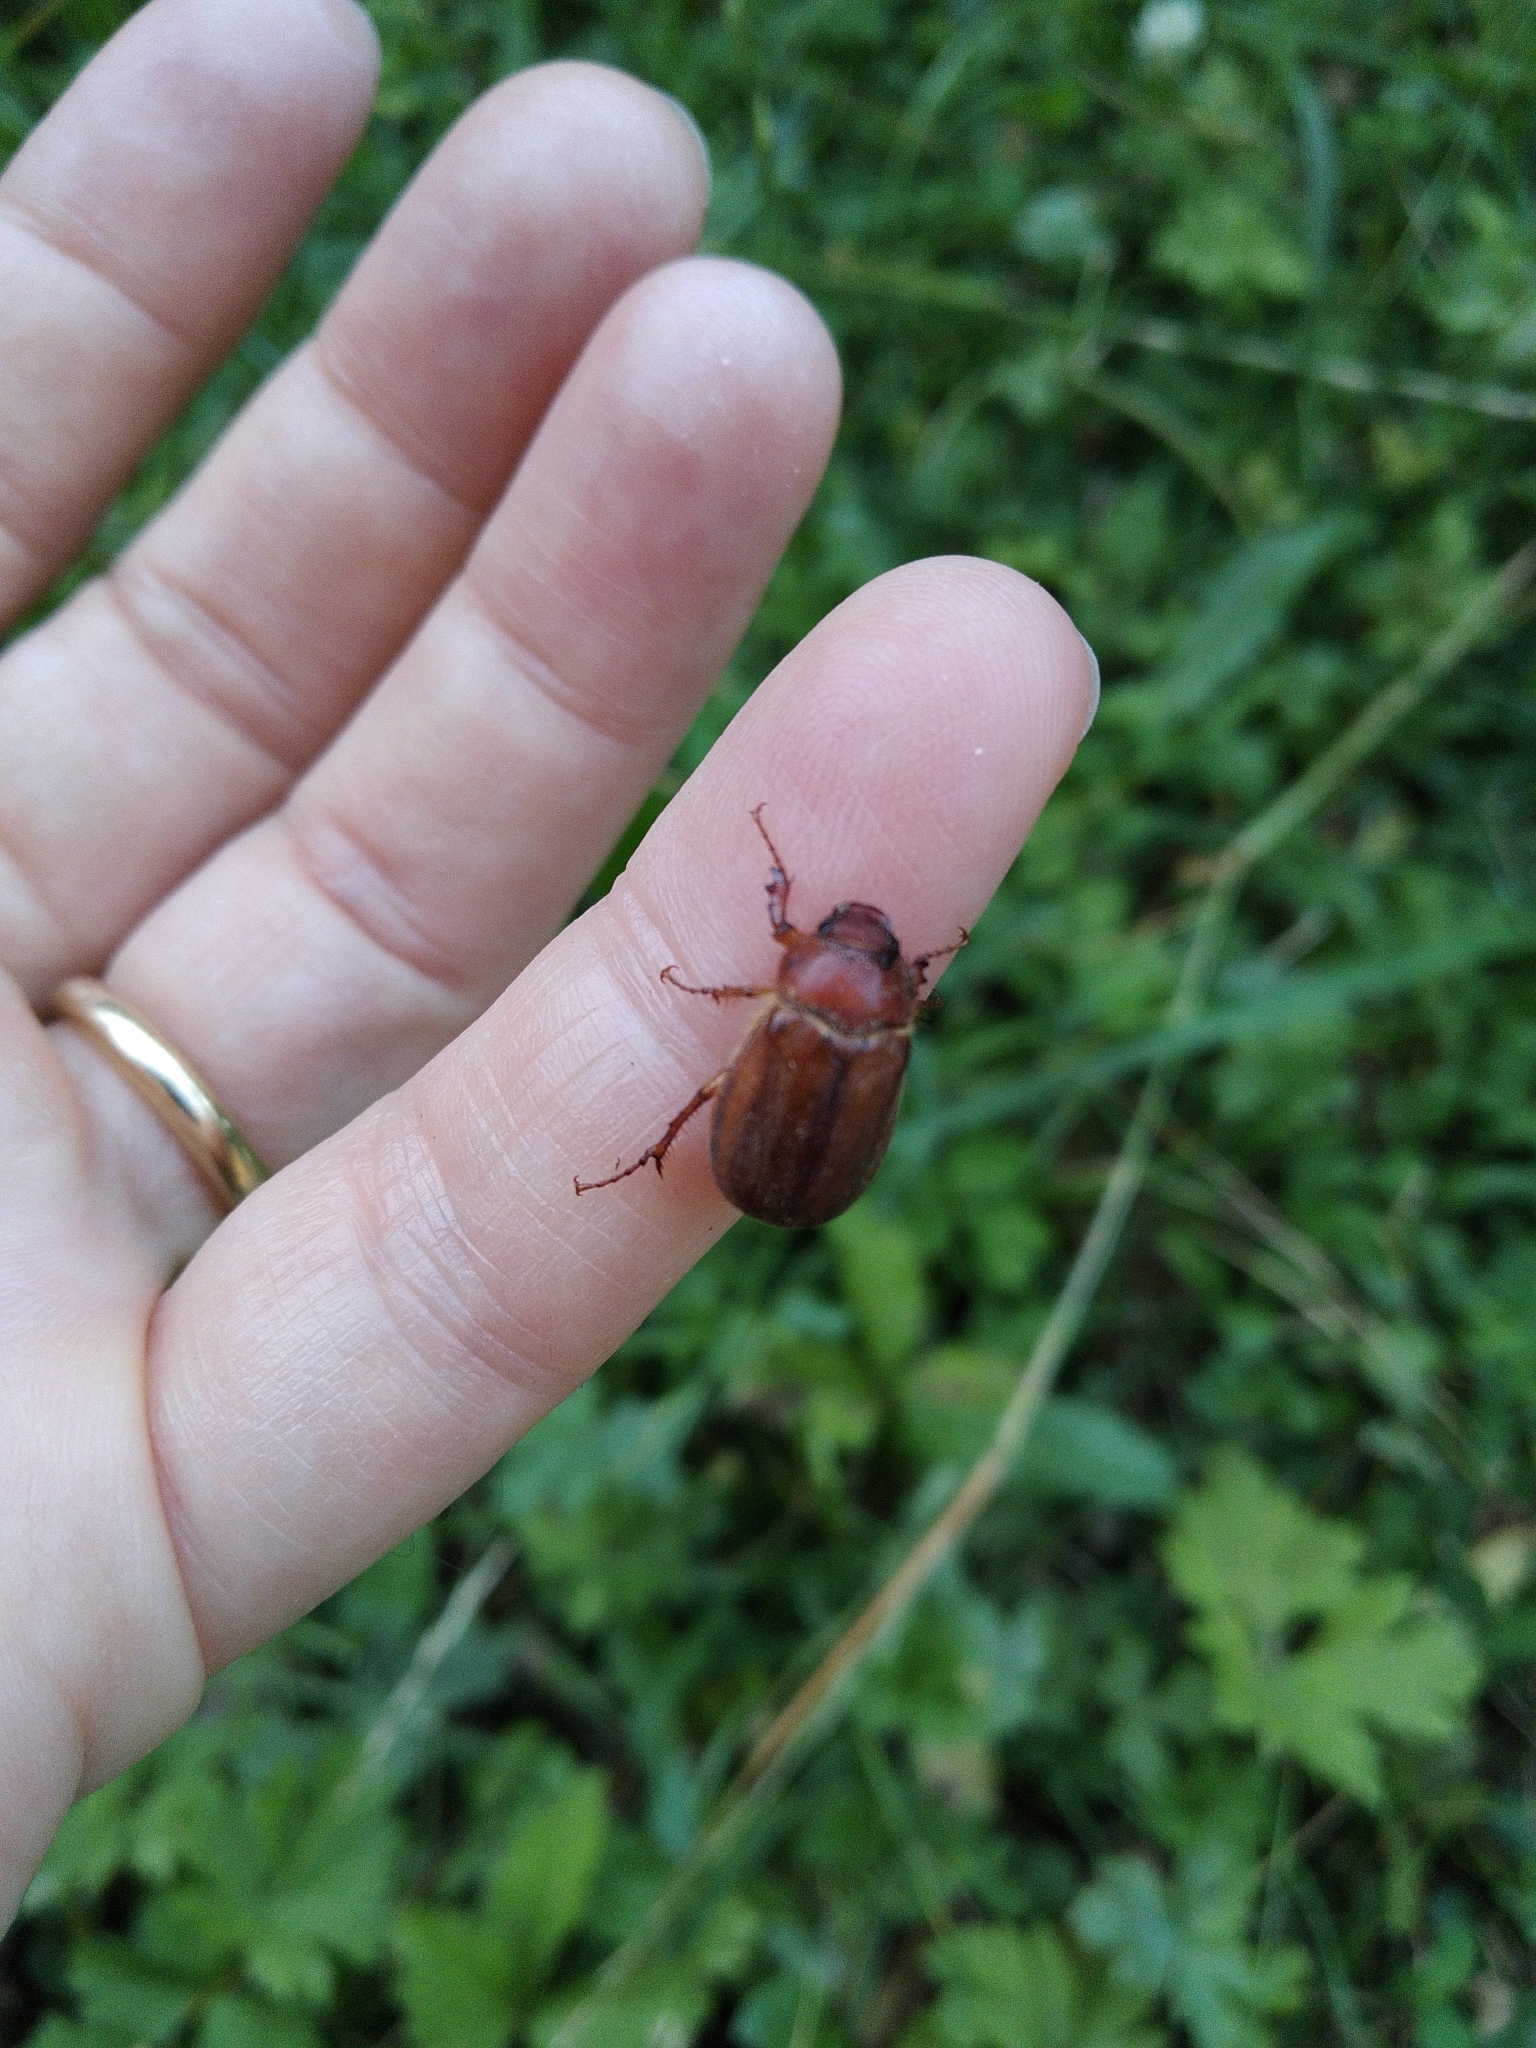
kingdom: Animalia
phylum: Arthropoda
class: Insecta
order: Coleoptera
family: Scarabaeidae
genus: Amphimallon
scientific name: Amphimallon majale
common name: European chafer
